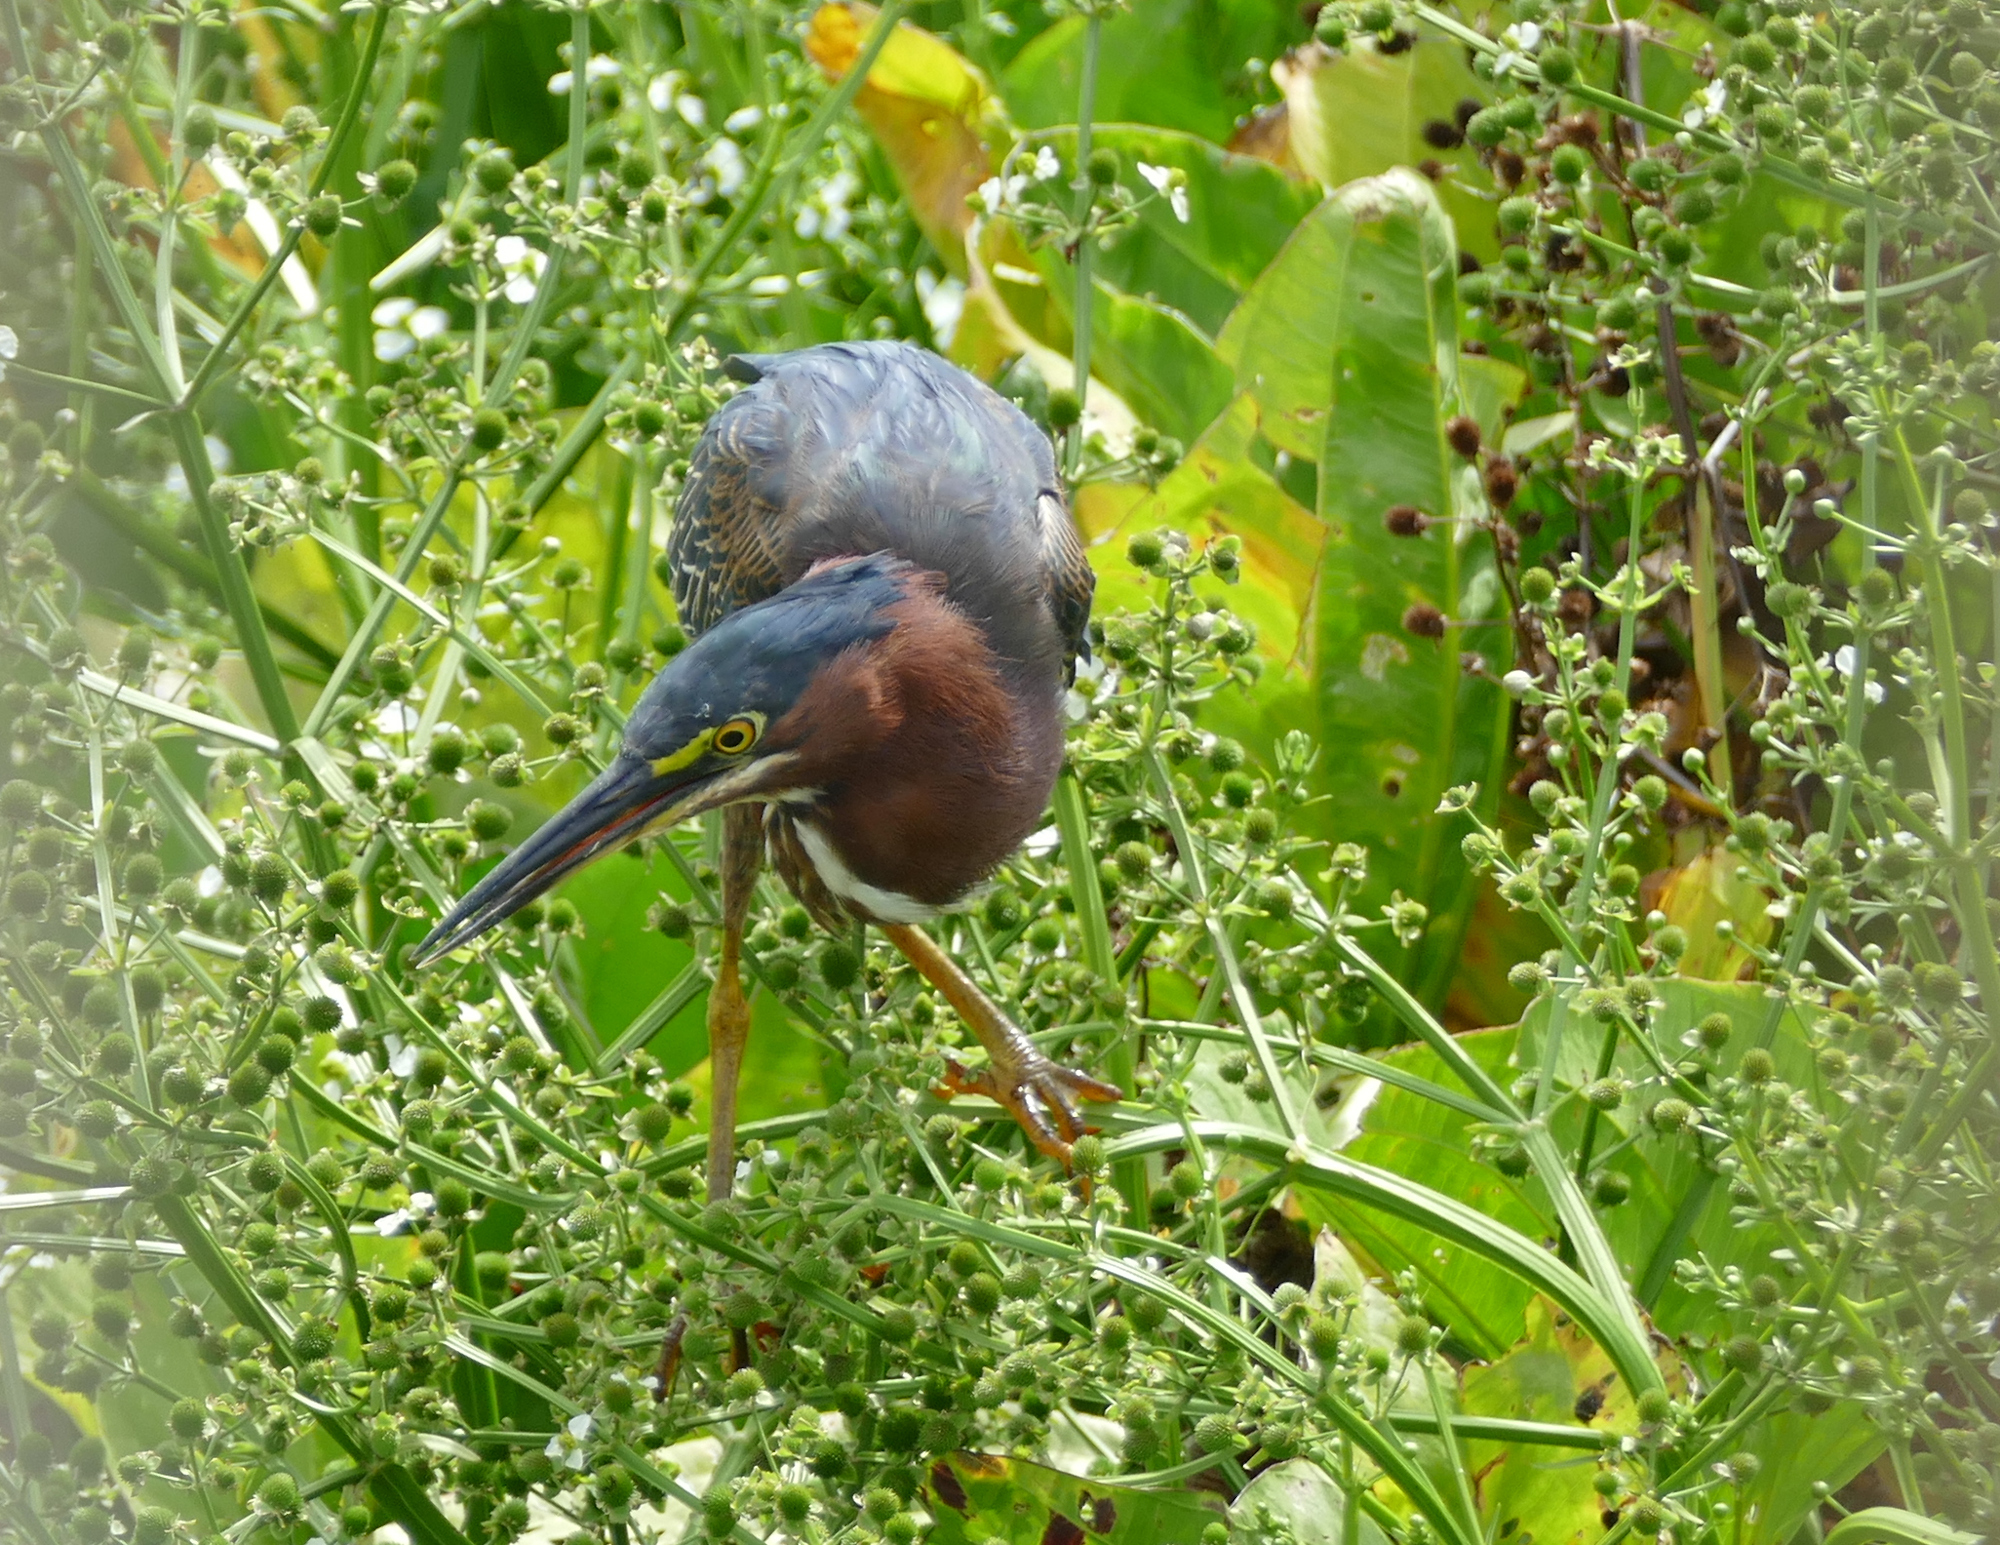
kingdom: Animalia
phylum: Chordata
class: Aves
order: Pelecaniformes
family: Ardeidae
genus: Butorides
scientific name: Butorides virescens
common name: Green heron
